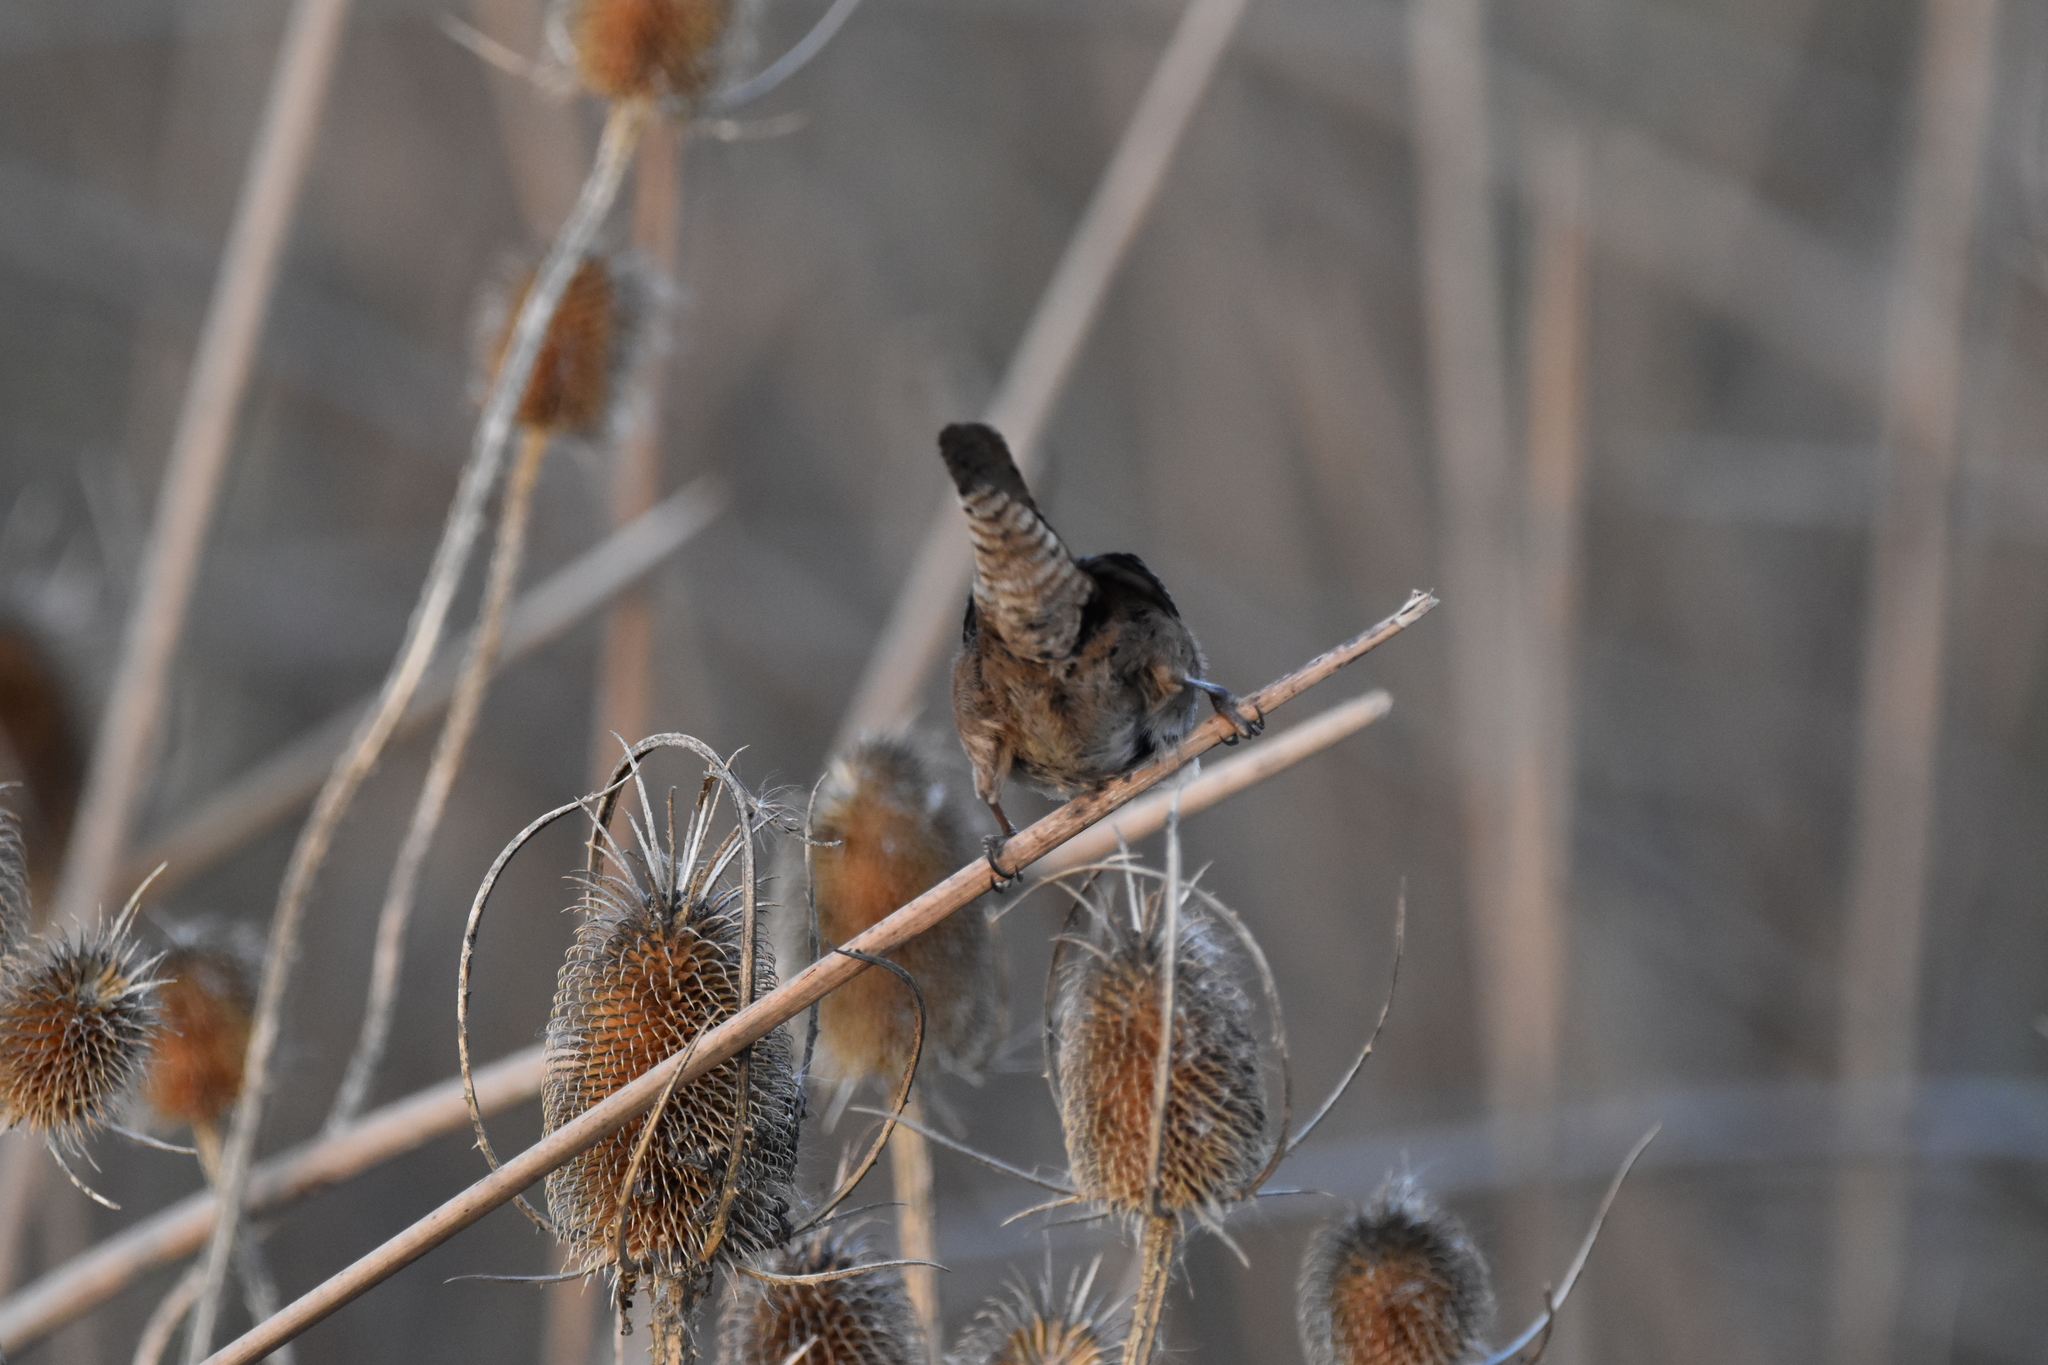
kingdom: Animalia
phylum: Chordata
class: Aves
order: Passeriformes
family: Troglodytidae
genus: Cistothorus
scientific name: Cistothorus palustris
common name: Marsh wren
